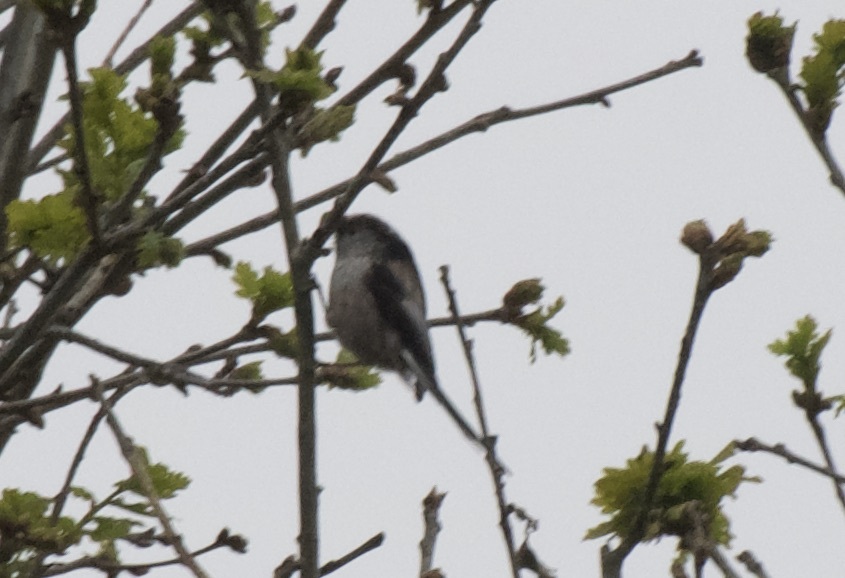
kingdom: Animalia
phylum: Chordata
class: Aves
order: Passeriformes
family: Aegithalidae
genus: Aegithalos
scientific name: Aegithalos caudatus
